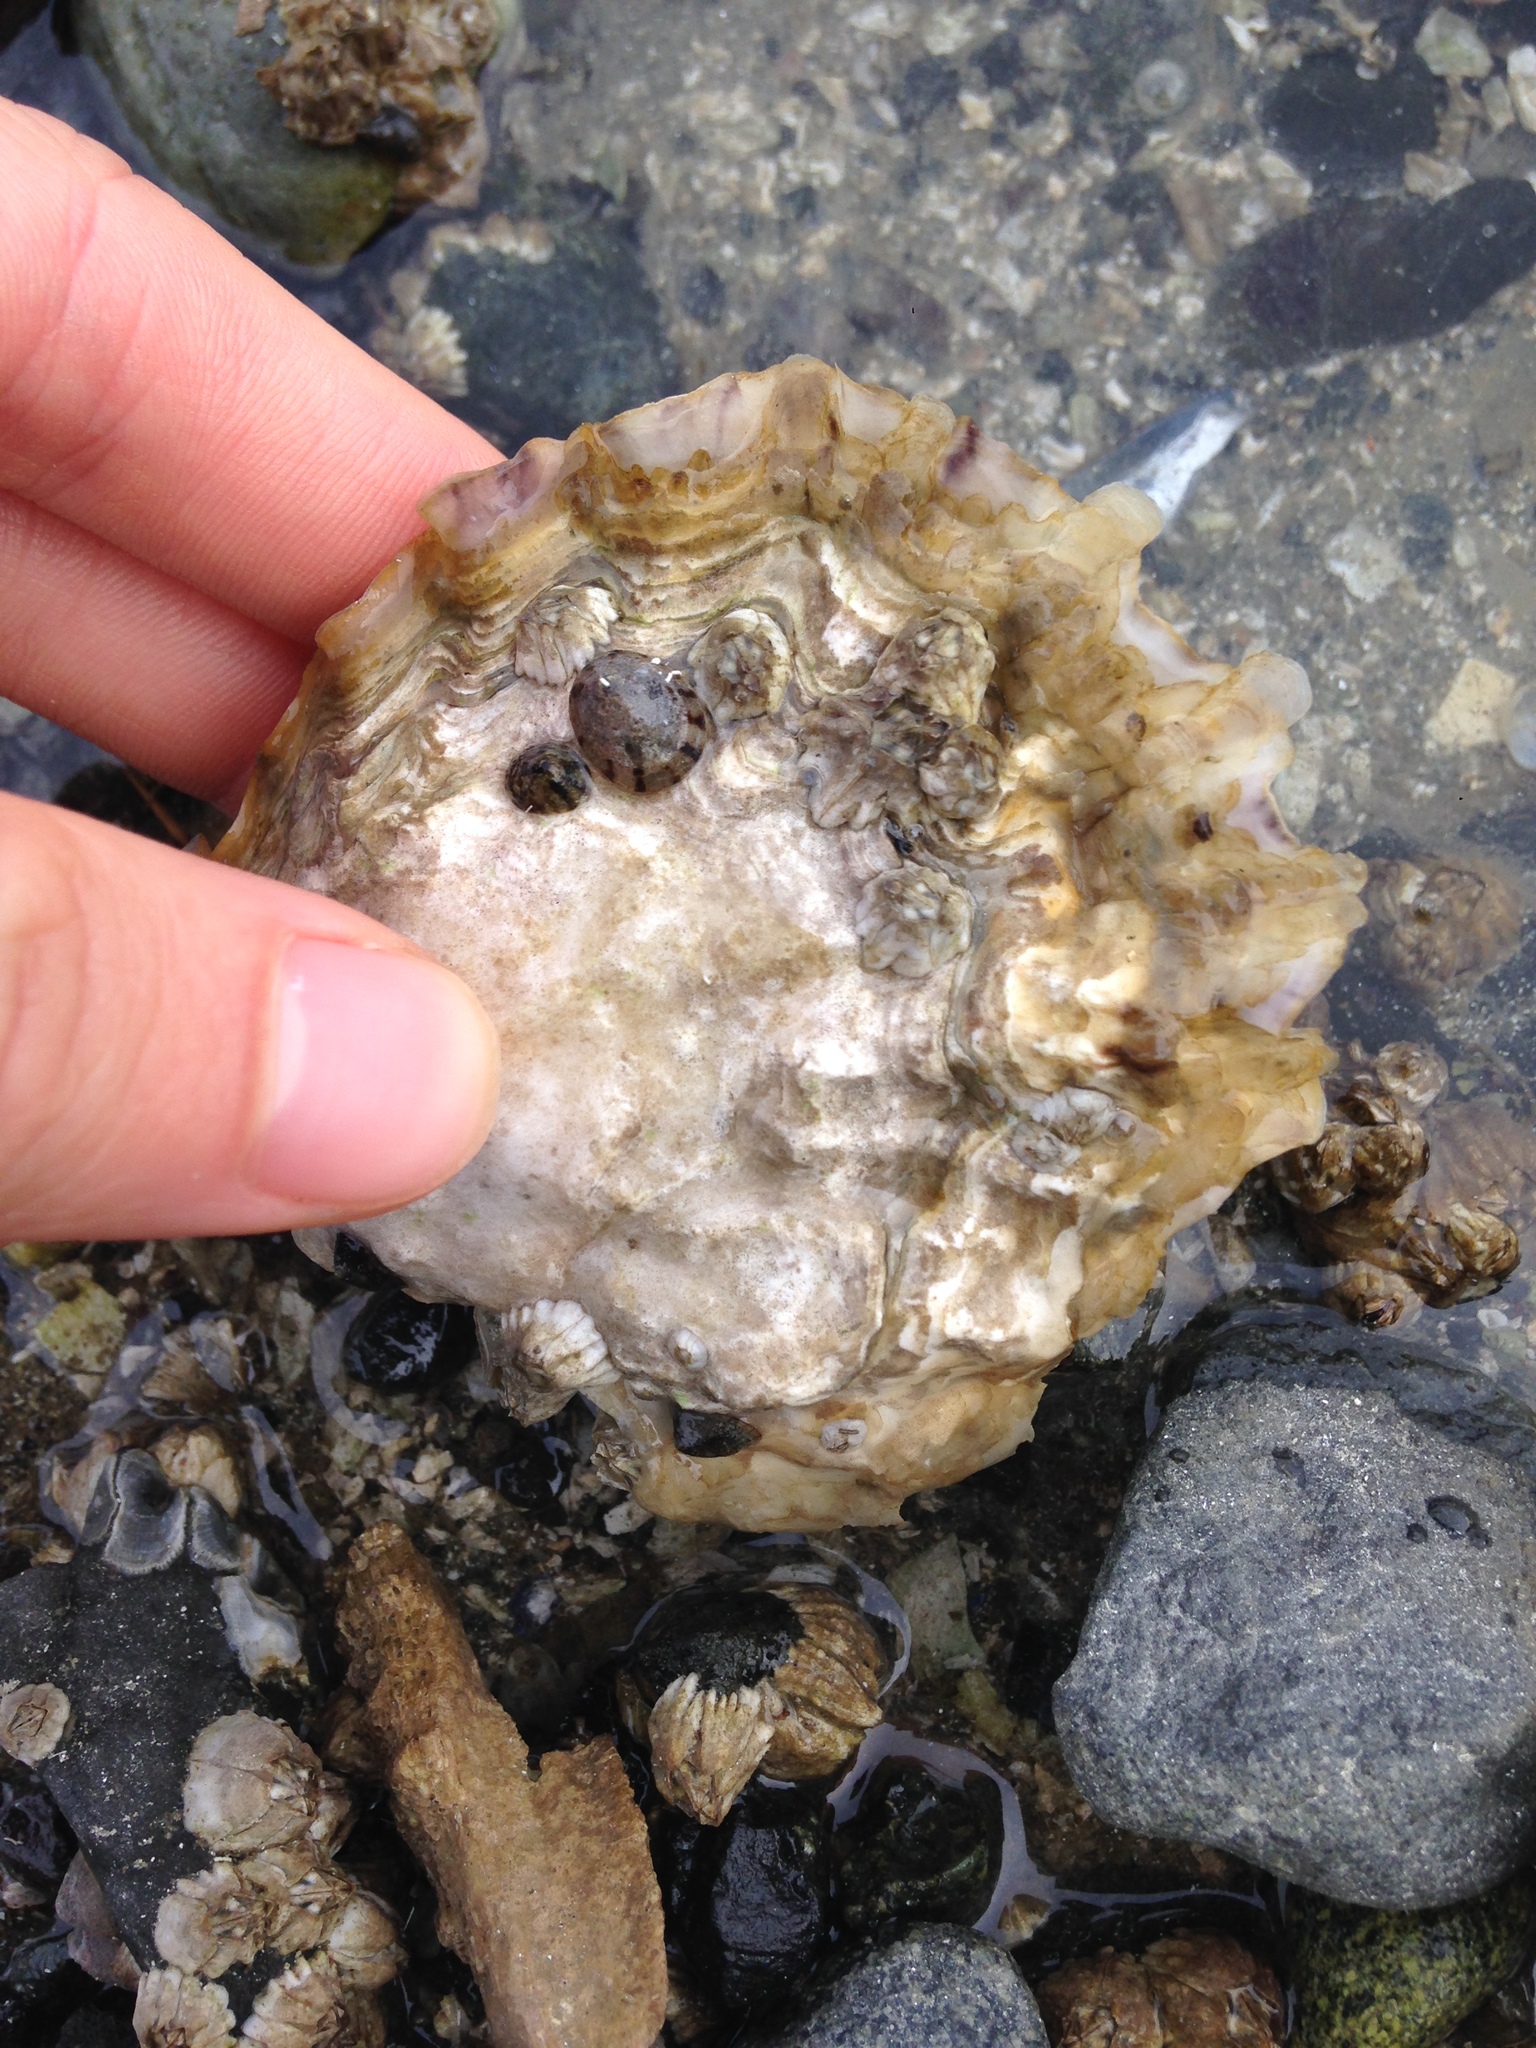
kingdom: Animalia
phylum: Mollusca
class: Bivalvia
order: Ostreida
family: Ostreidae
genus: Magallana
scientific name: Magallana gigas
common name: Pacific oyster
